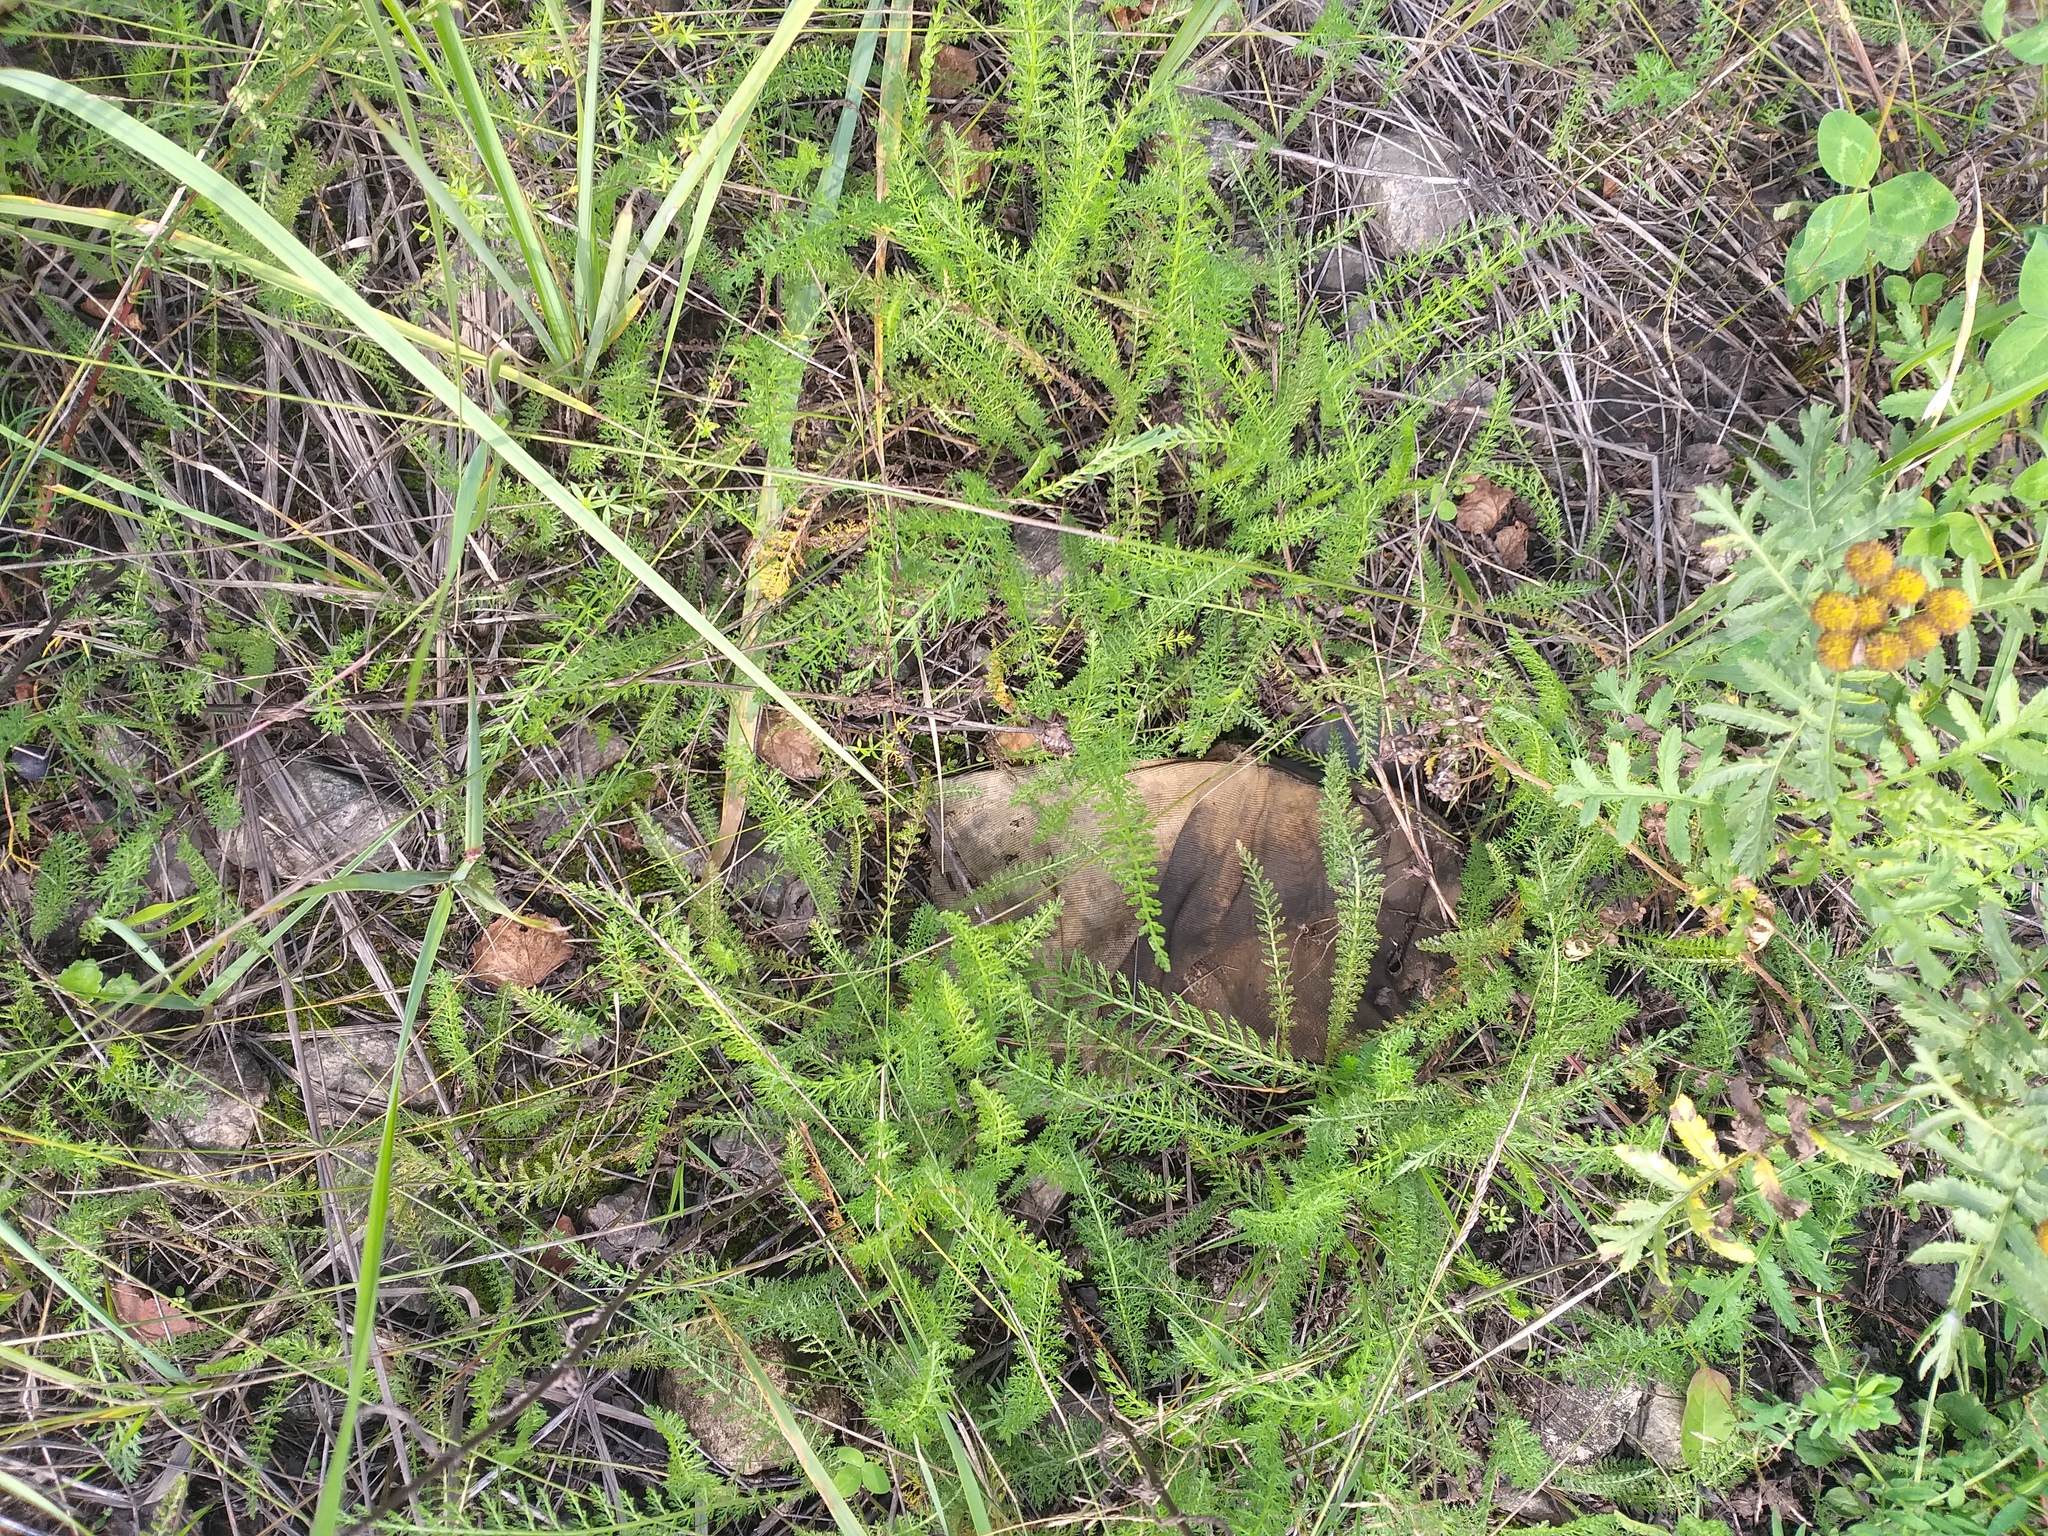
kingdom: Plantae
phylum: Tracheophyta
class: Magnoliopsida
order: Asterales
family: Asteraceae
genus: Achillea
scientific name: Achillea millefolium
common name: Yarrow
